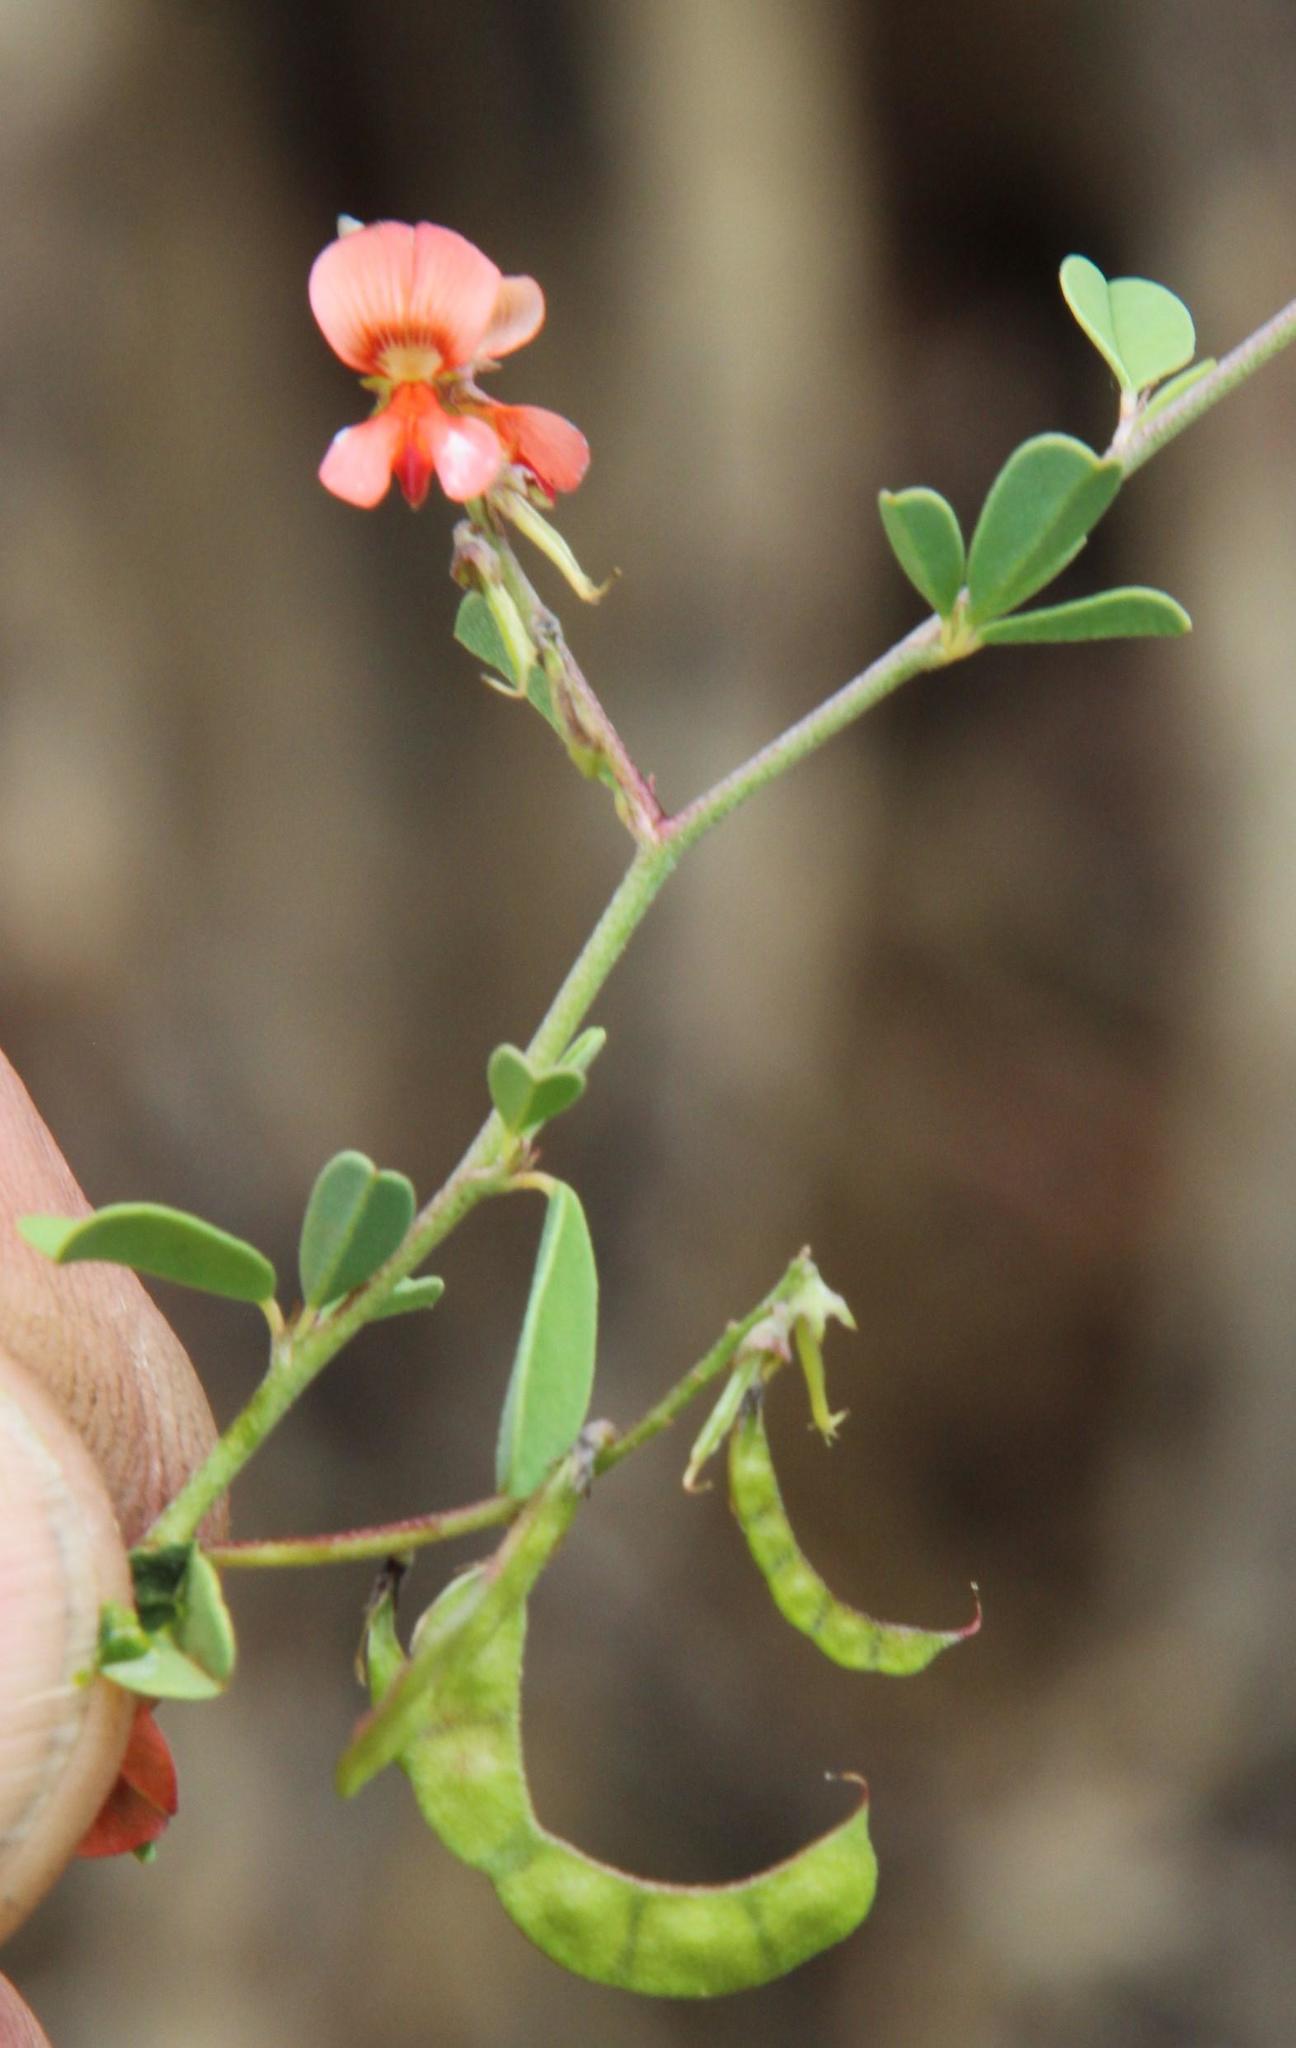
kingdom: Plantae
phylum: Tracheophyta
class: Magnoliopsida
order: Fabales
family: Fabaceae
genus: Indigofera
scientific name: Indigofera sessilifolia
